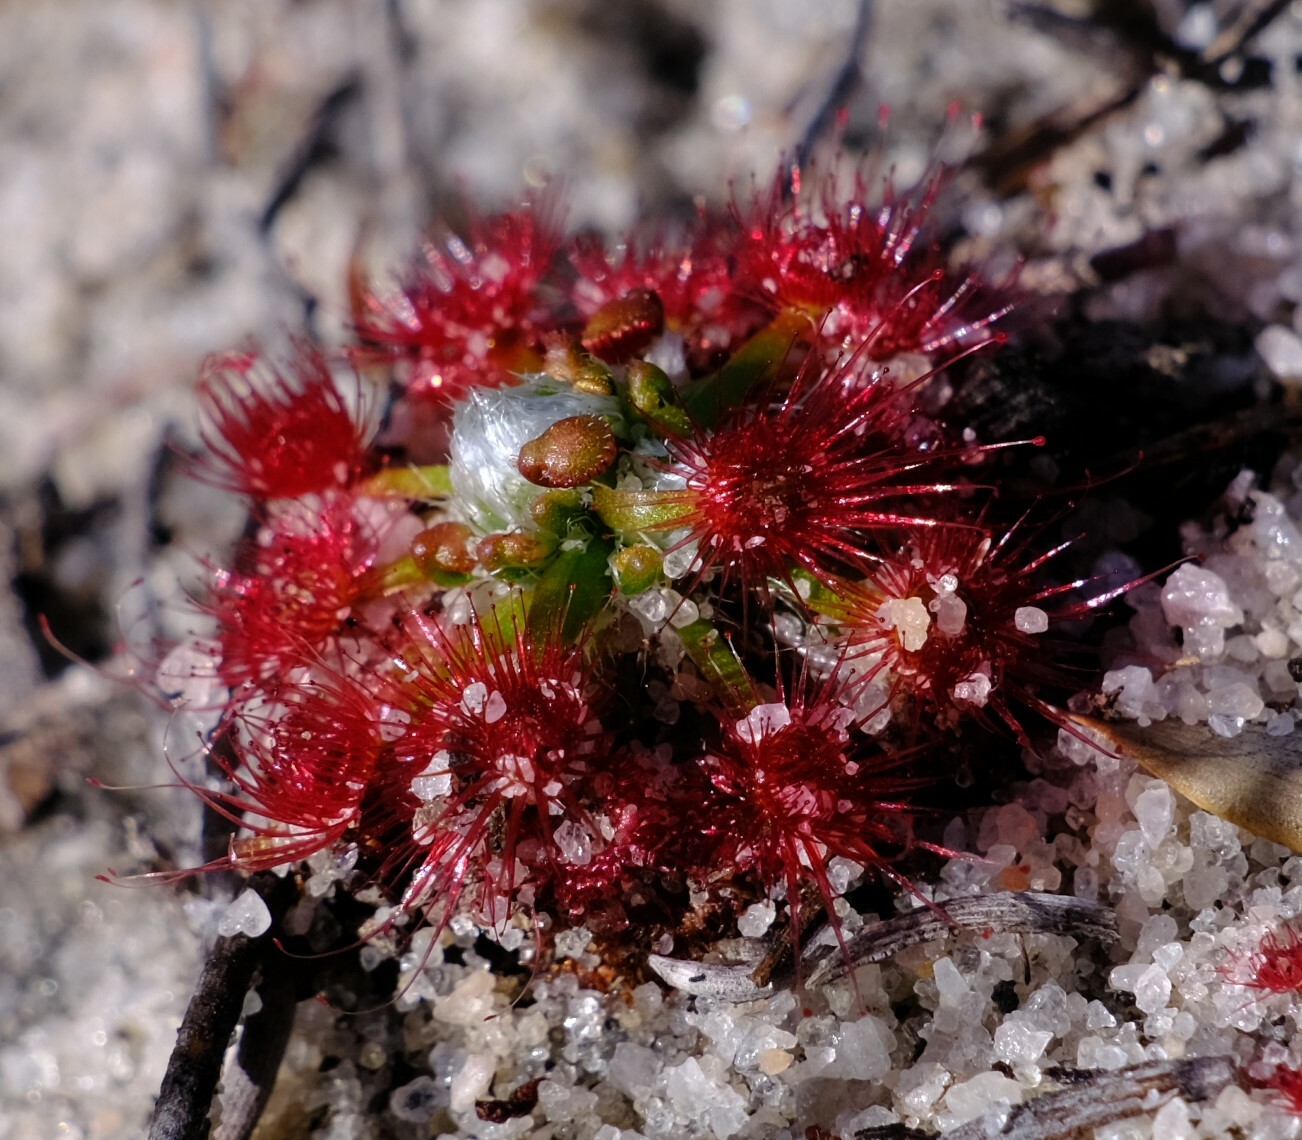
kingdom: Plantae
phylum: Tracheophyta
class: Magnoliopsida
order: Caryophyllales
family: Droseraceae
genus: Drosera
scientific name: Drosera eneabba
